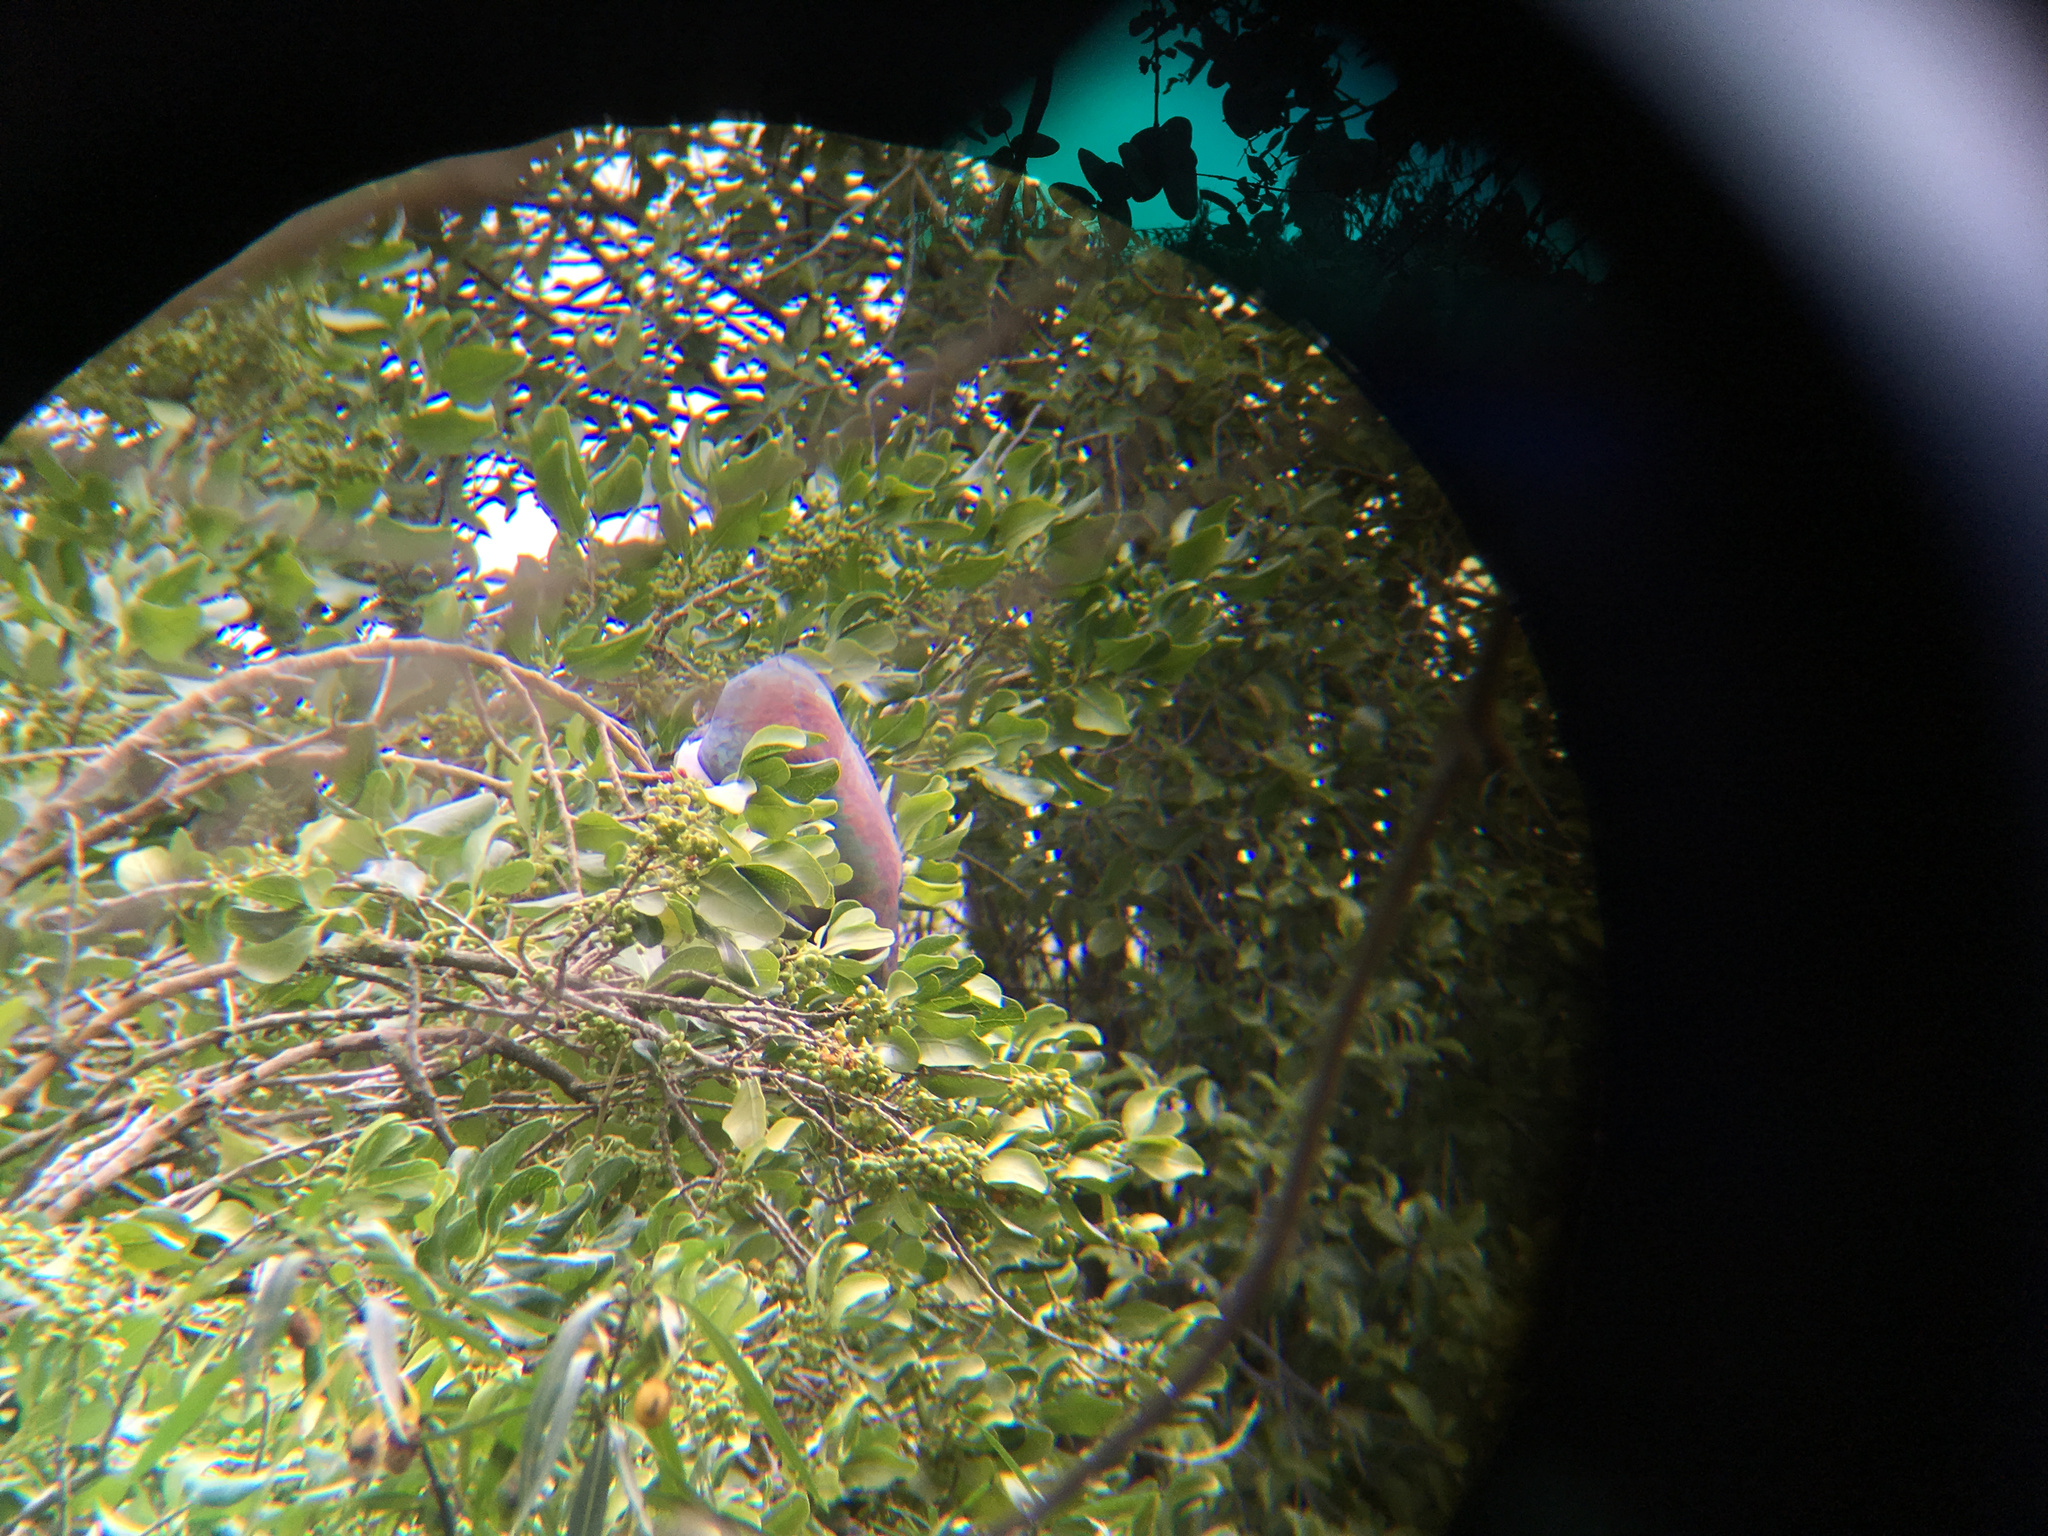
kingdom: Animalia
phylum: Chordata
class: Aves
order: Columbiformes
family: Columbidae
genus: Hemiphaga
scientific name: Hemiphaga novaeseelandiae
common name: New zealand pigeon
